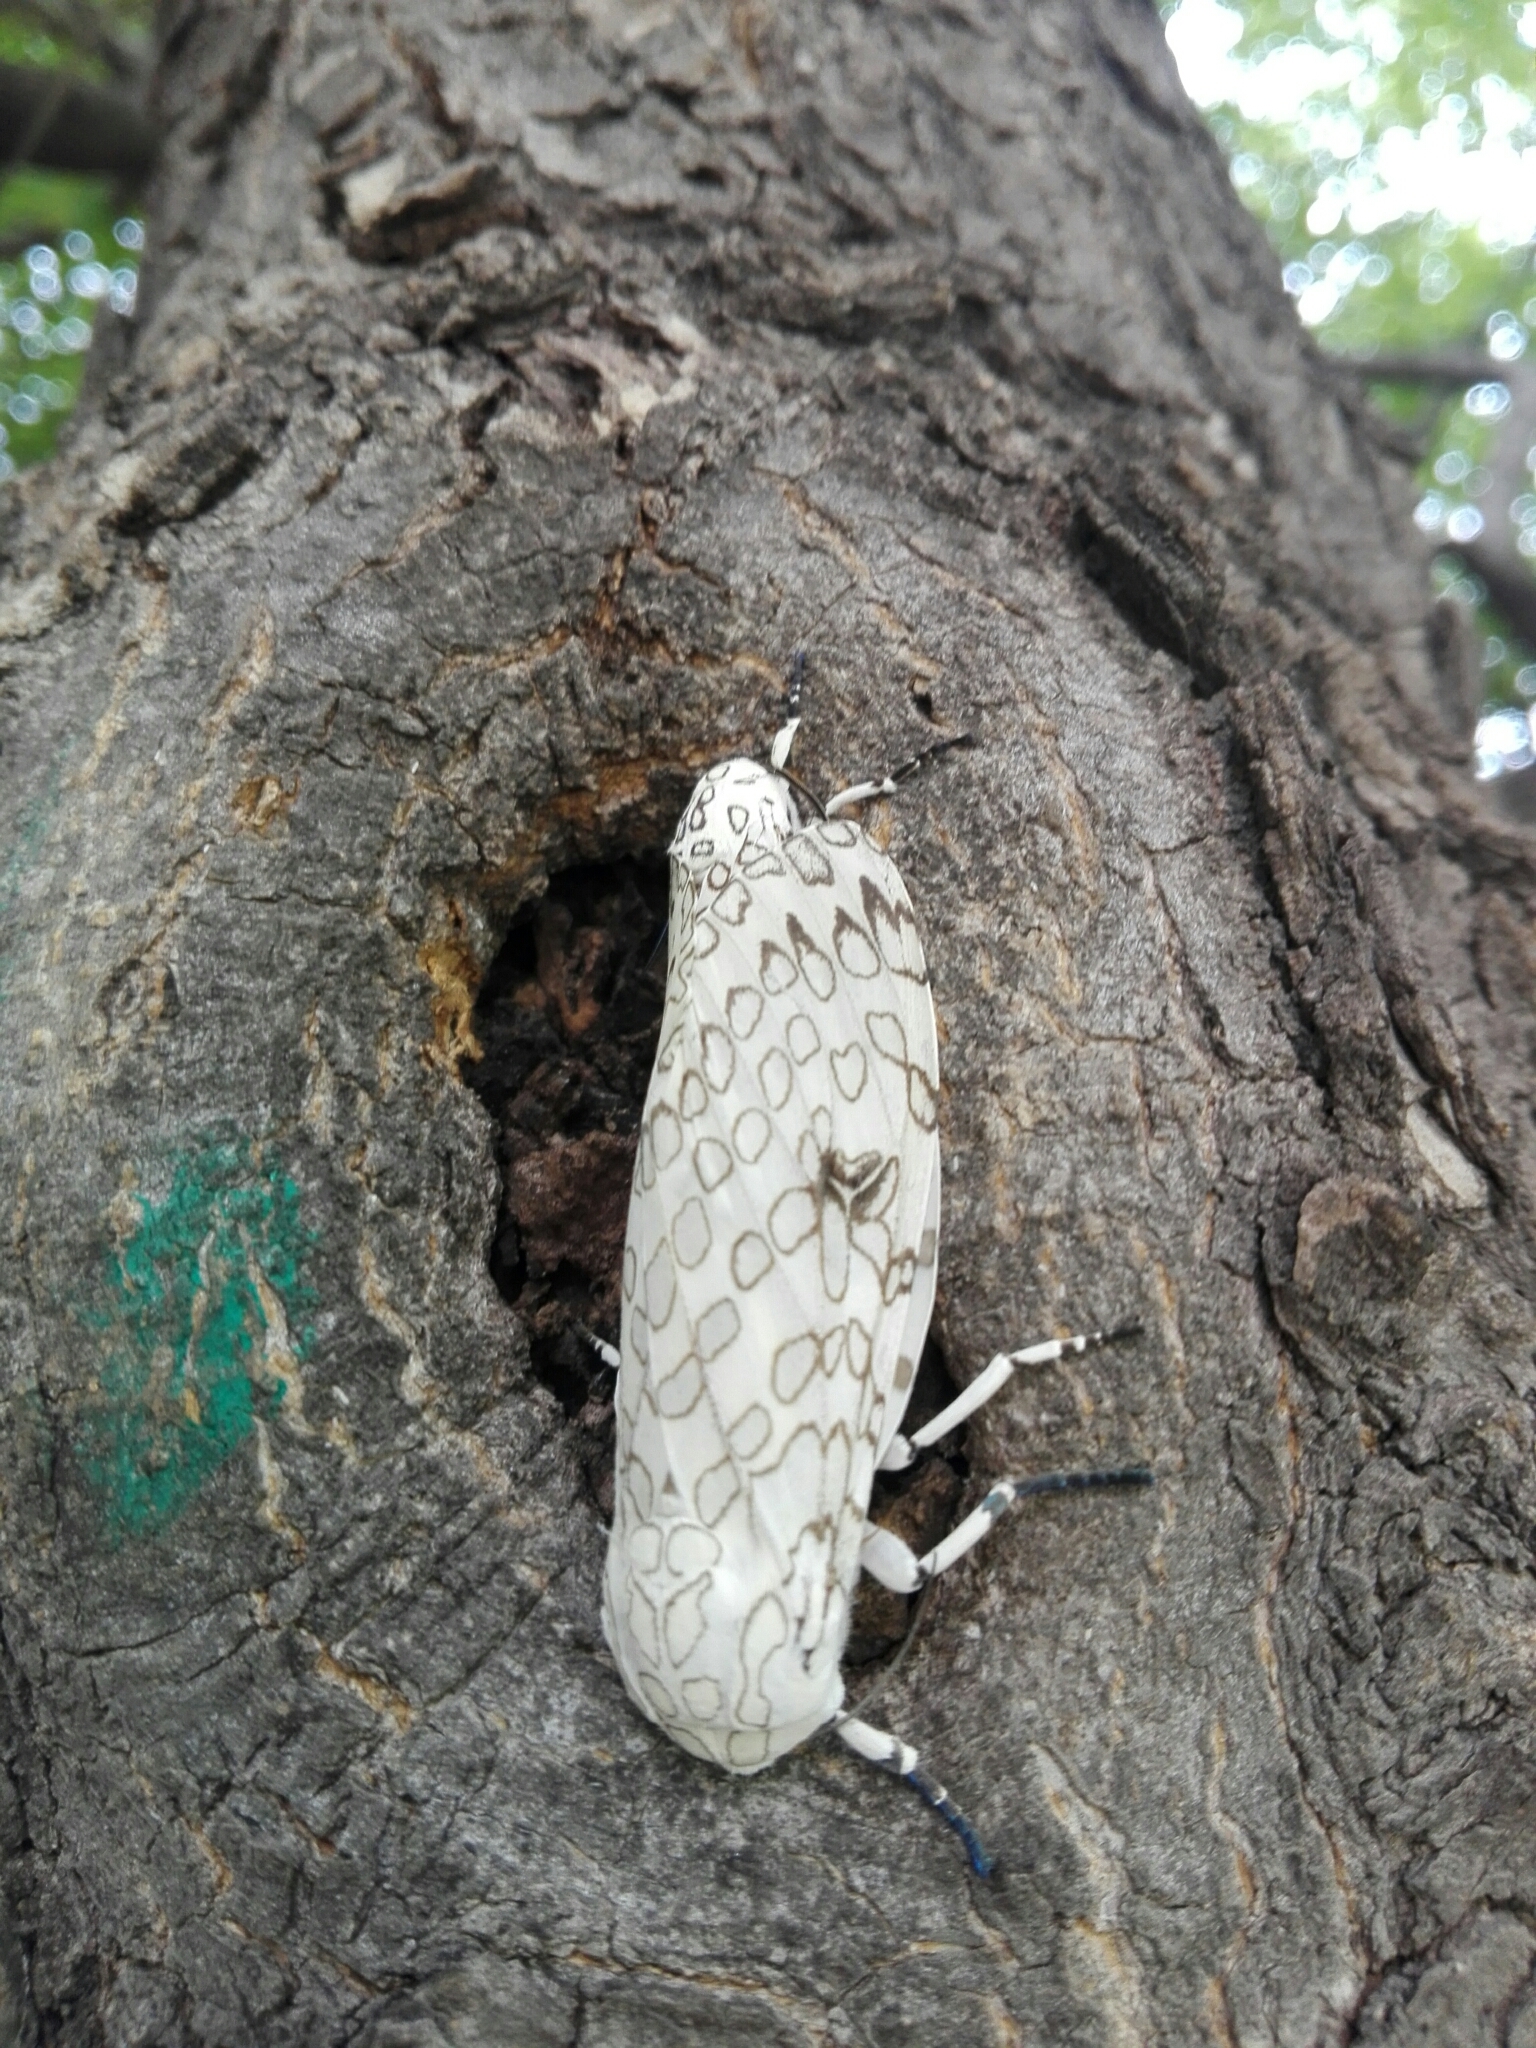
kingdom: Animalia
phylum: Arthropoda
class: Insecta
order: Lepidoptera
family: Erebidae
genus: Hypercompe
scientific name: Hypercompe scribonia
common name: Giant leopard moth
